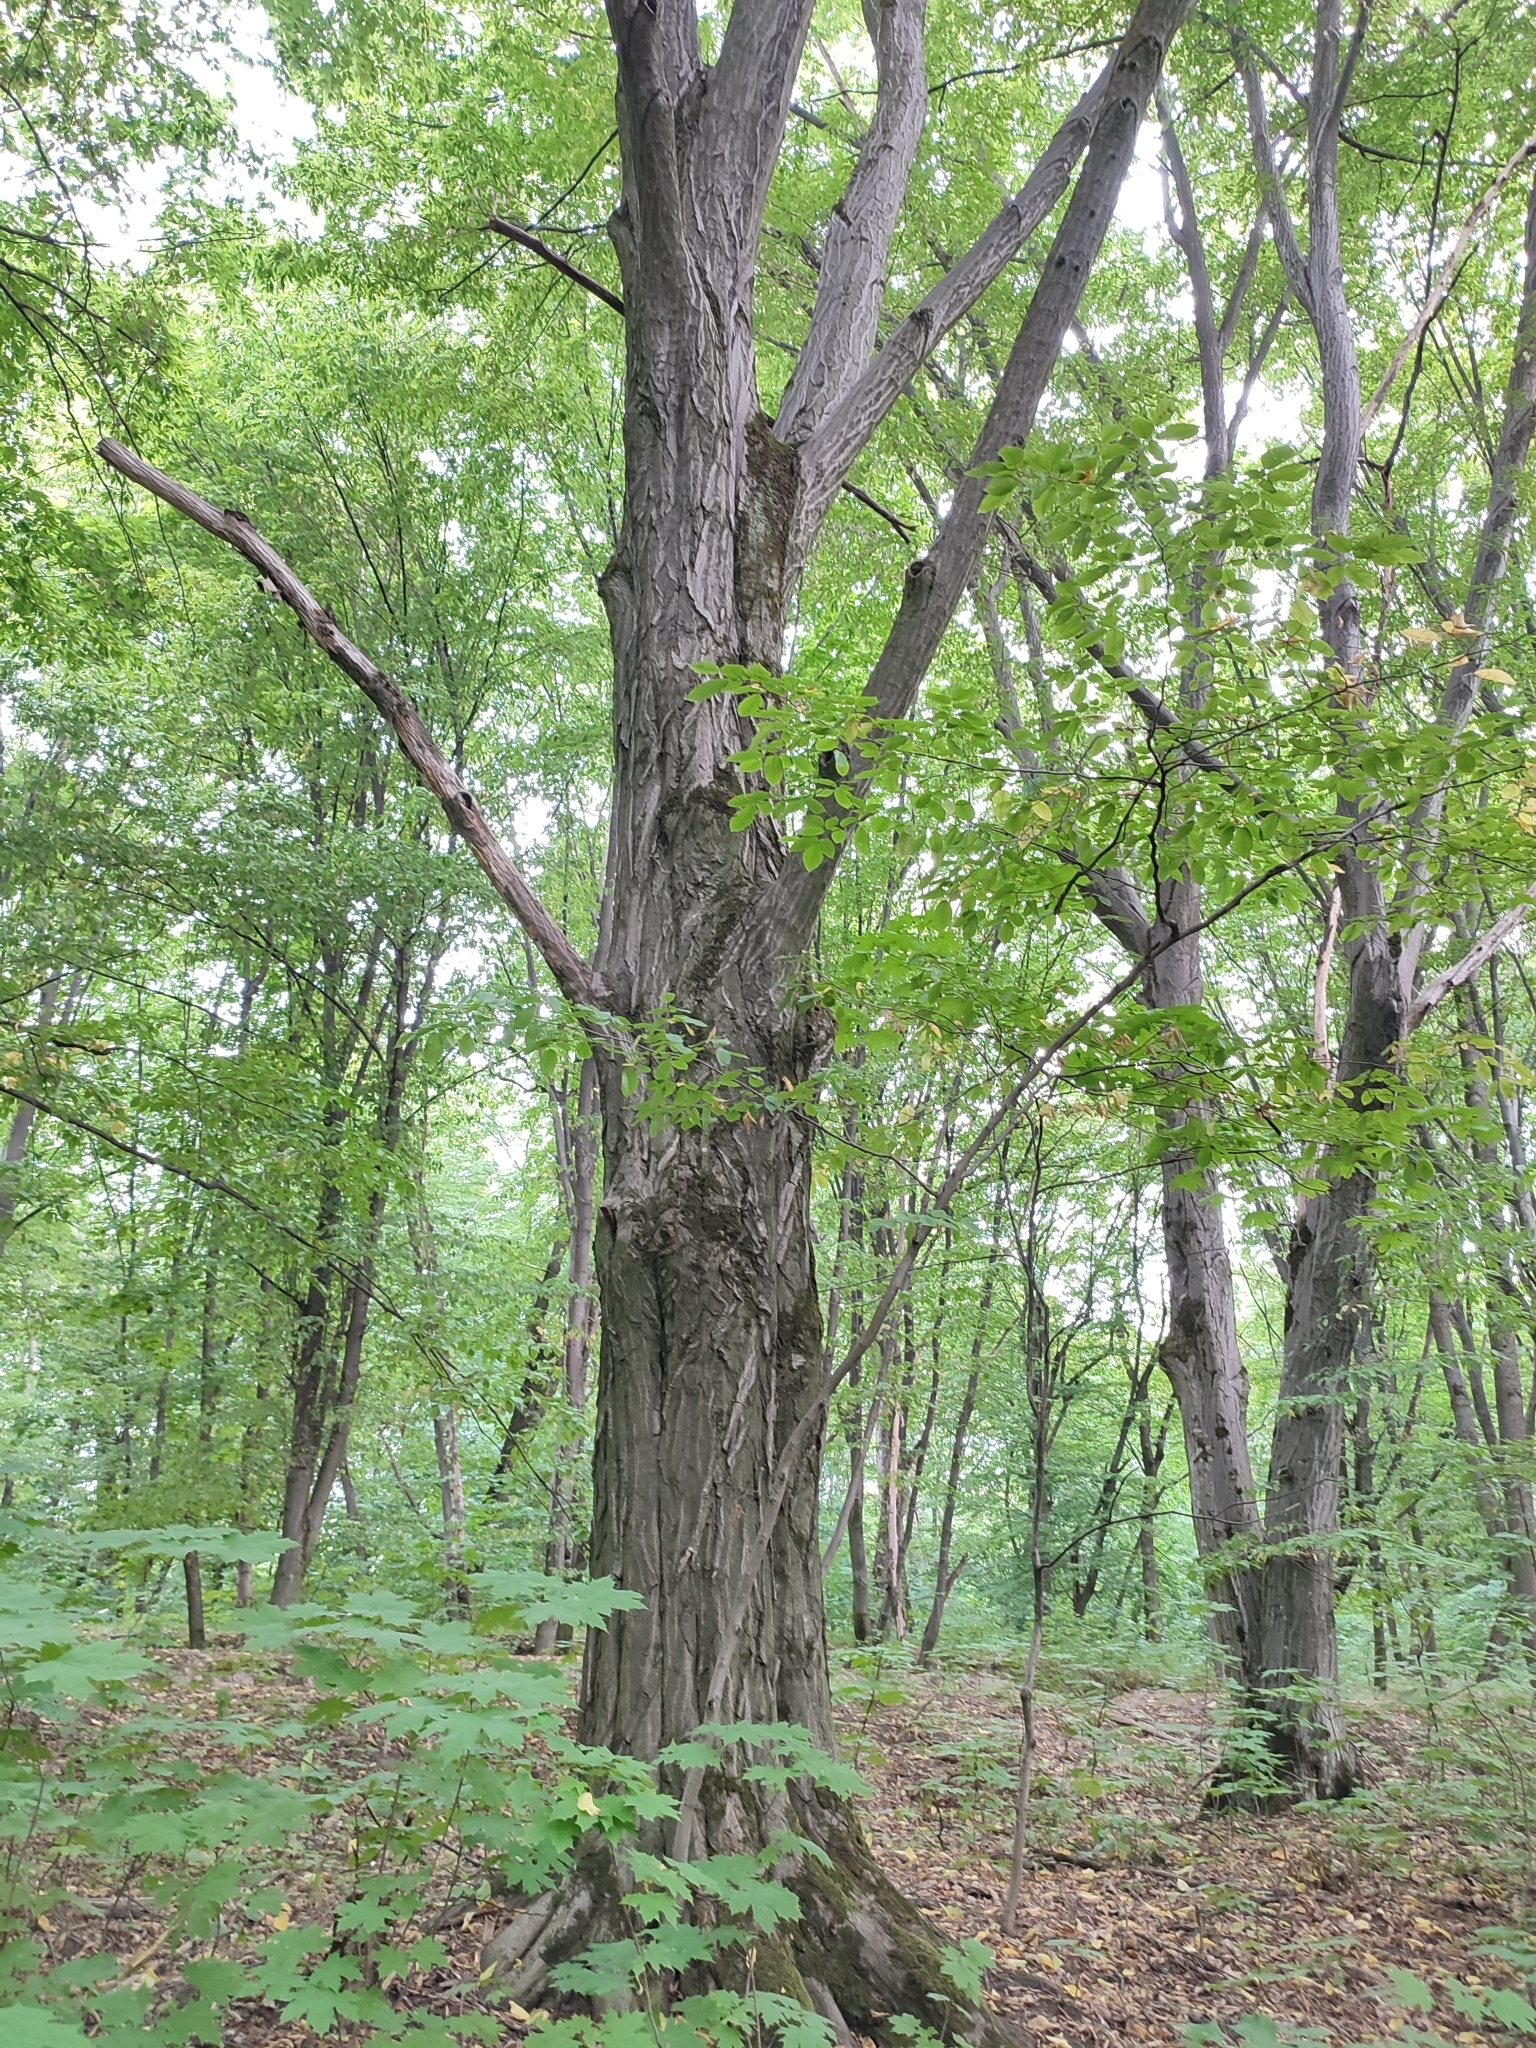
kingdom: Plantae
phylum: Tracheophyta
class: Magnoliopsida
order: Fagales
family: Betulaceae
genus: Carpinus
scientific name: Carpinus betulus
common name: Hornbeam
